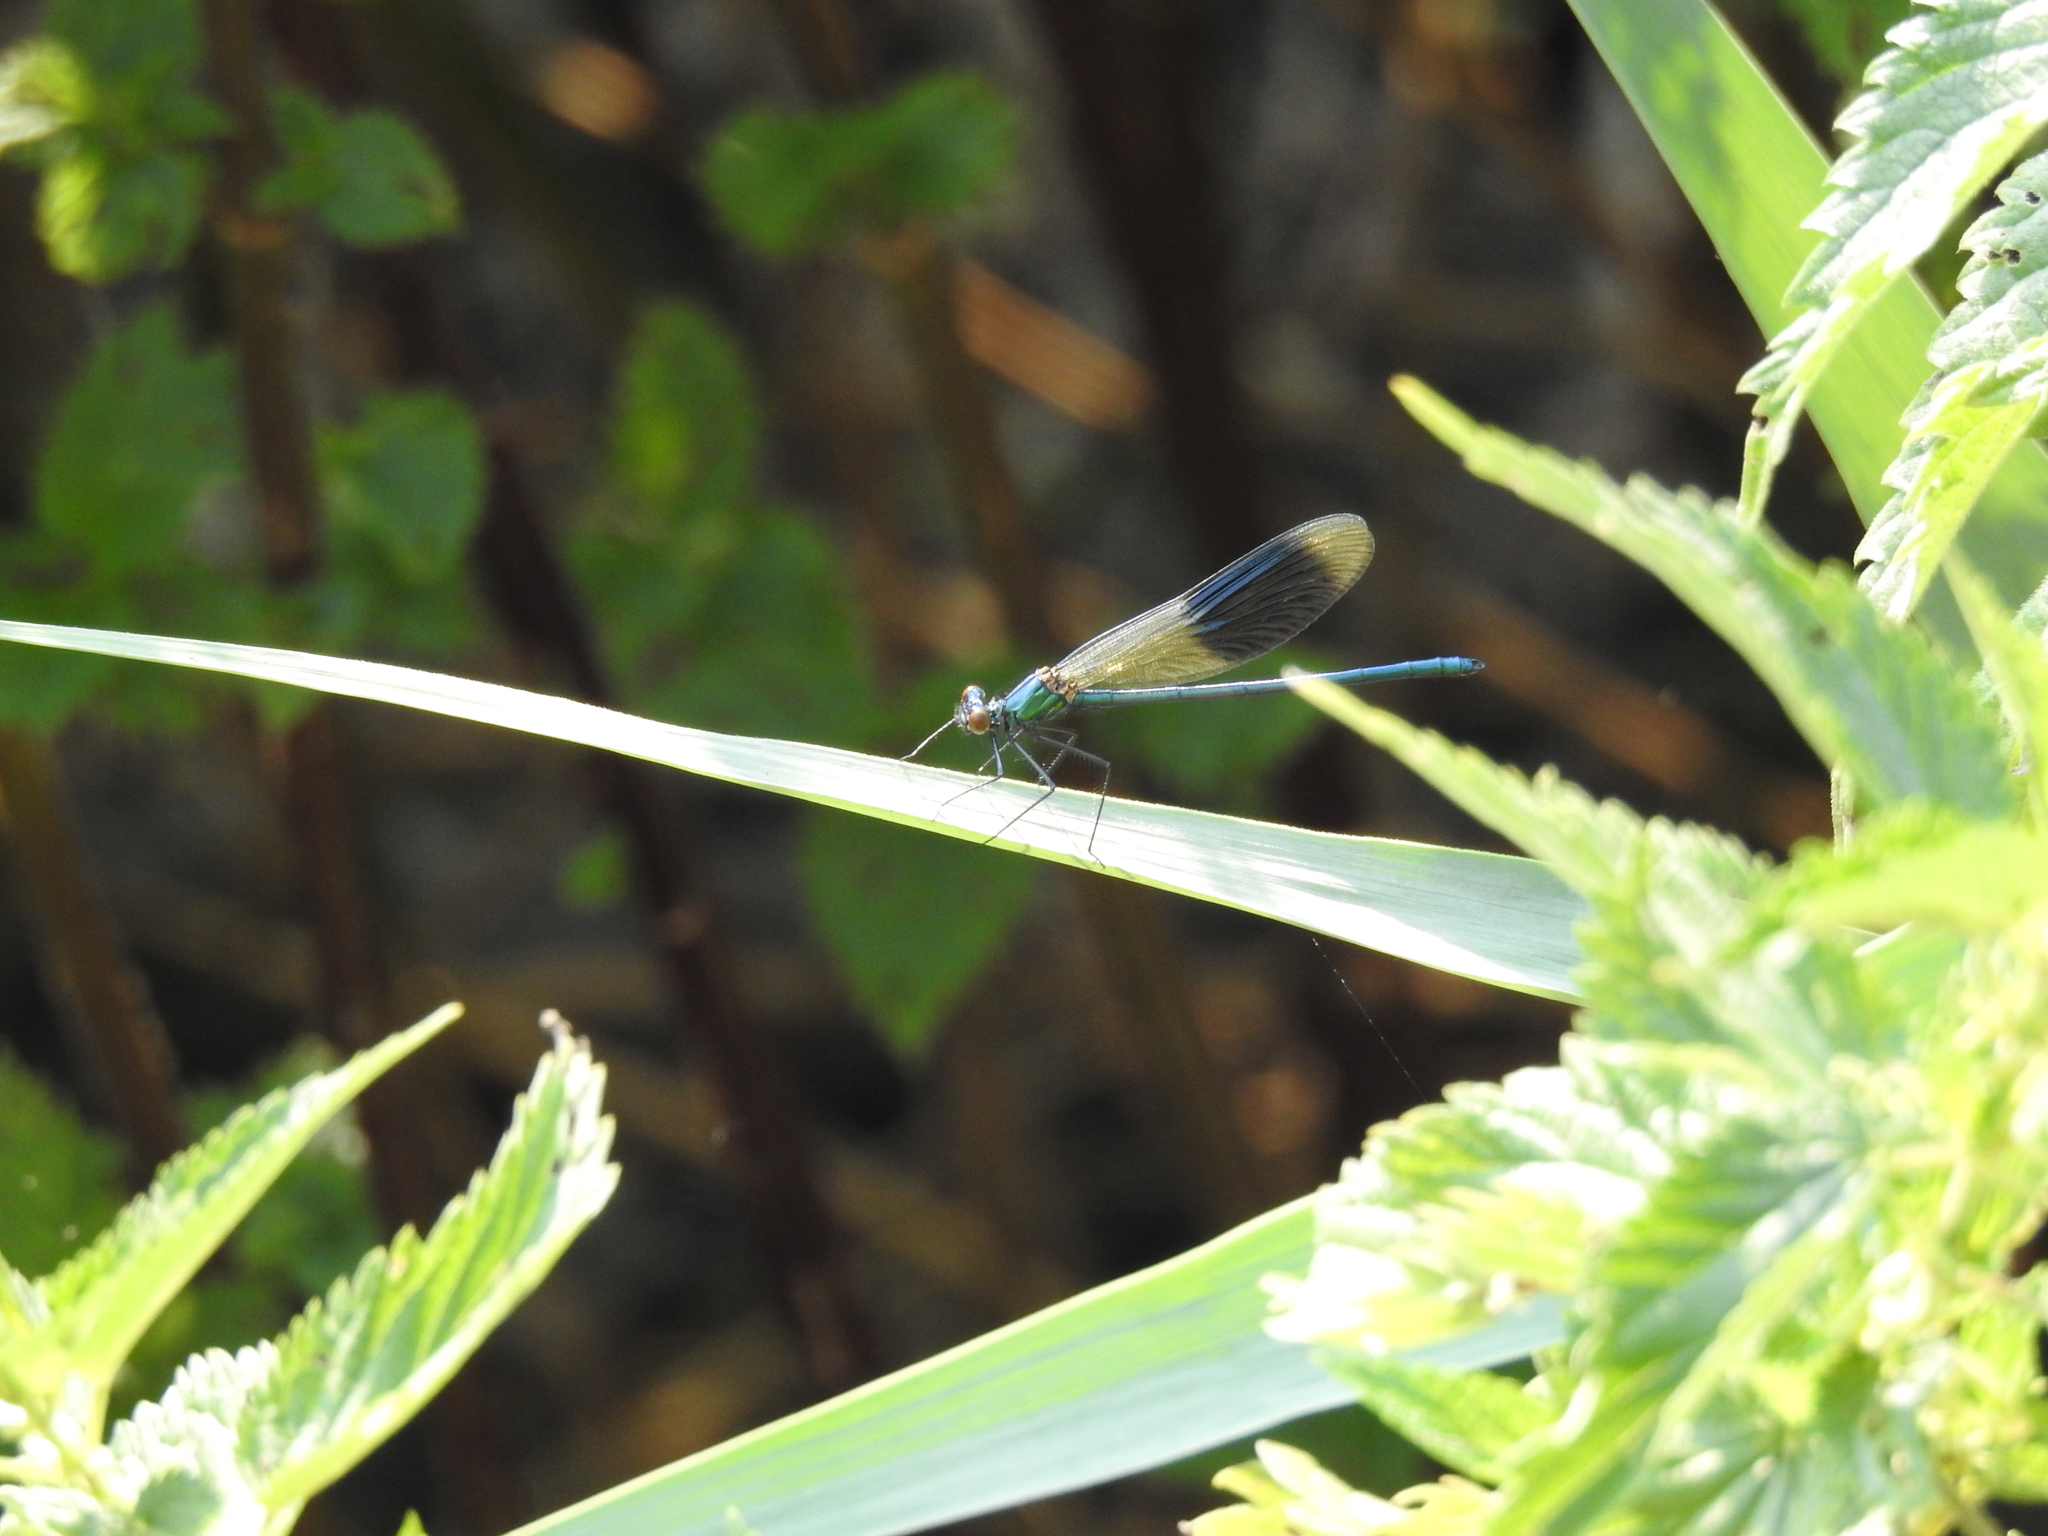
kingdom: Animalia
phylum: Arthropoda
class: Insecta
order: Odonata
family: Calopterygidae
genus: Calopteryx
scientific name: Calopteryx splendens
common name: Banded demoiselle
